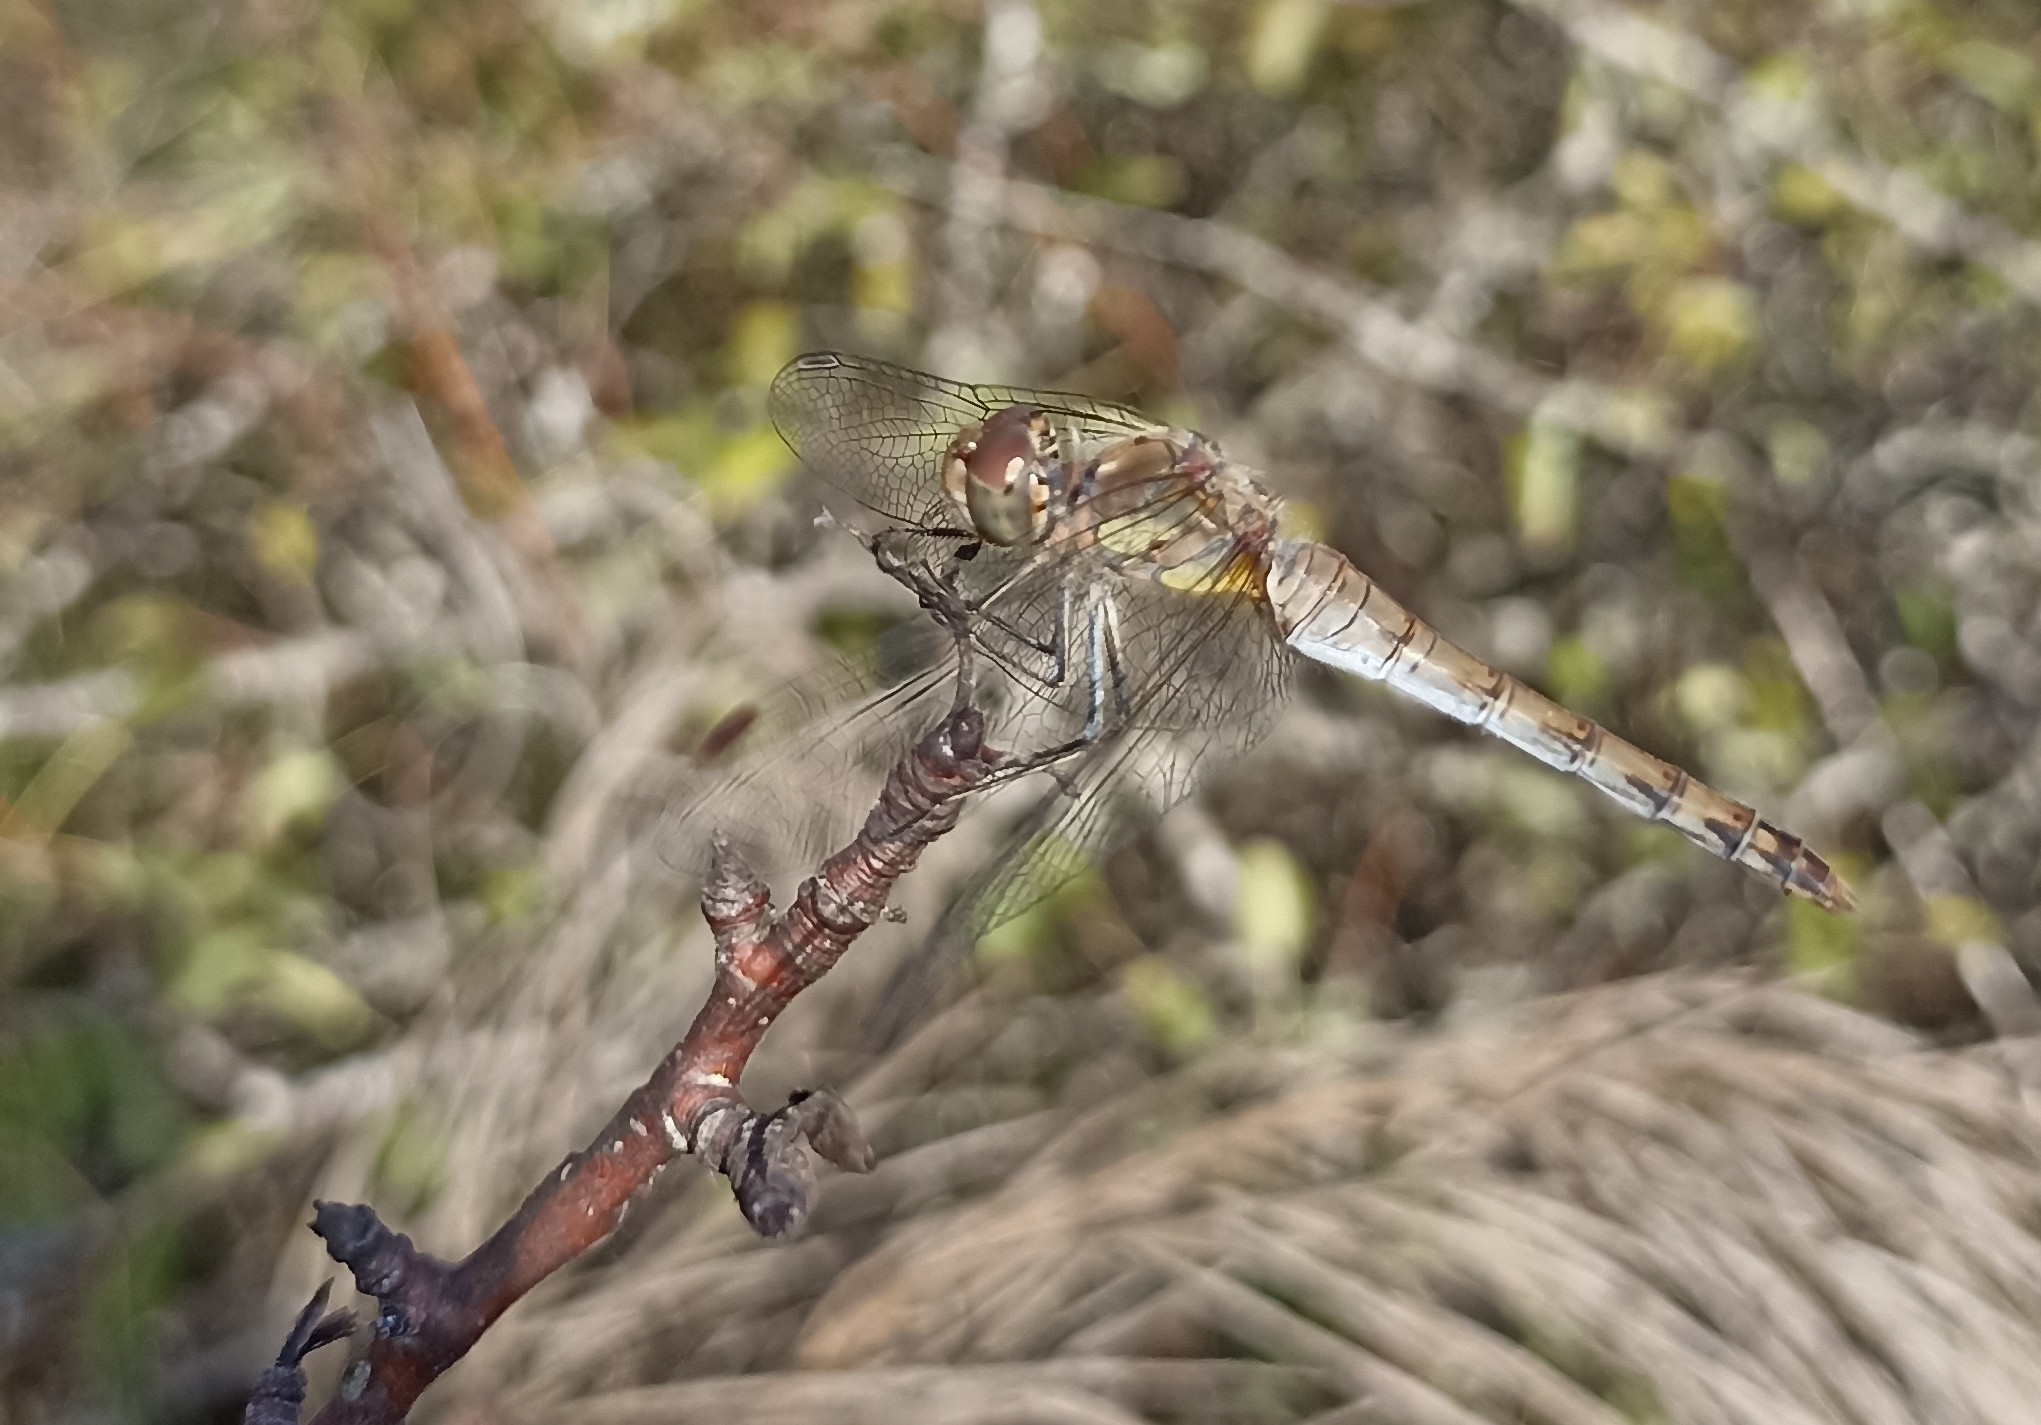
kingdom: Animalia
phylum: Arthropoda
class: Insecta
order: Odonata
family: Libellulidae
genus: Sympetrum
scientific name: Sympetrum striolatum
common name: Common darter
